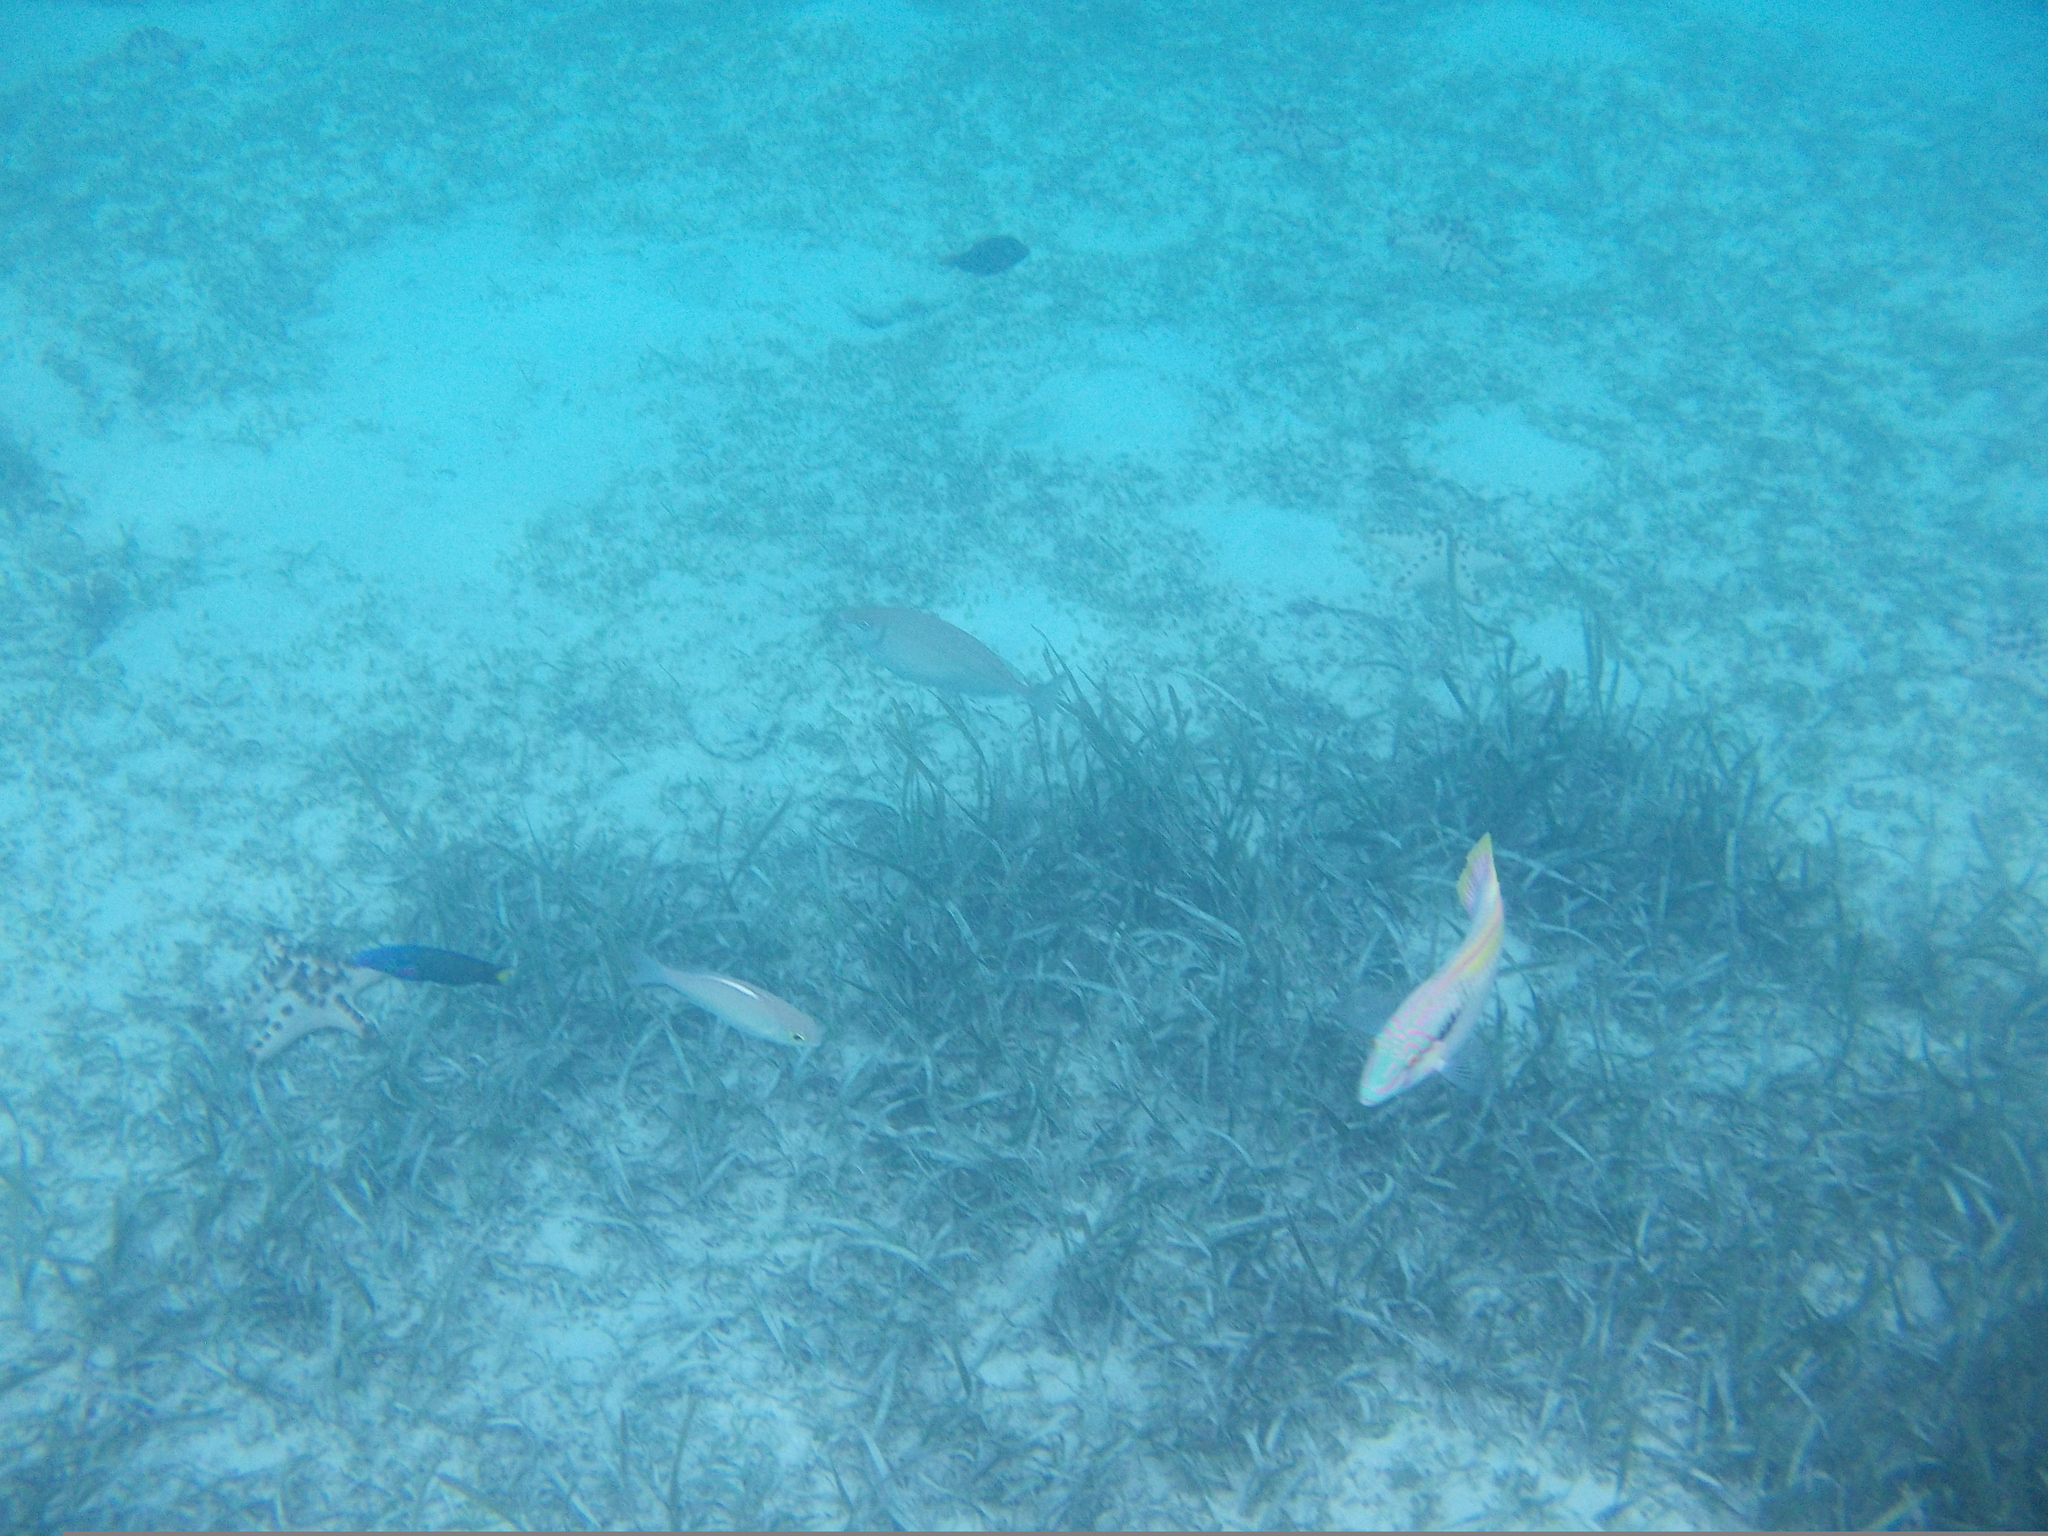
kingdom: Animalia
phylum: Chordata
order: Perciformes
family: Labridae
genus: Halichoeres
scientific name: Halichoeres scapularis
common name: Brownbanded wrasse
